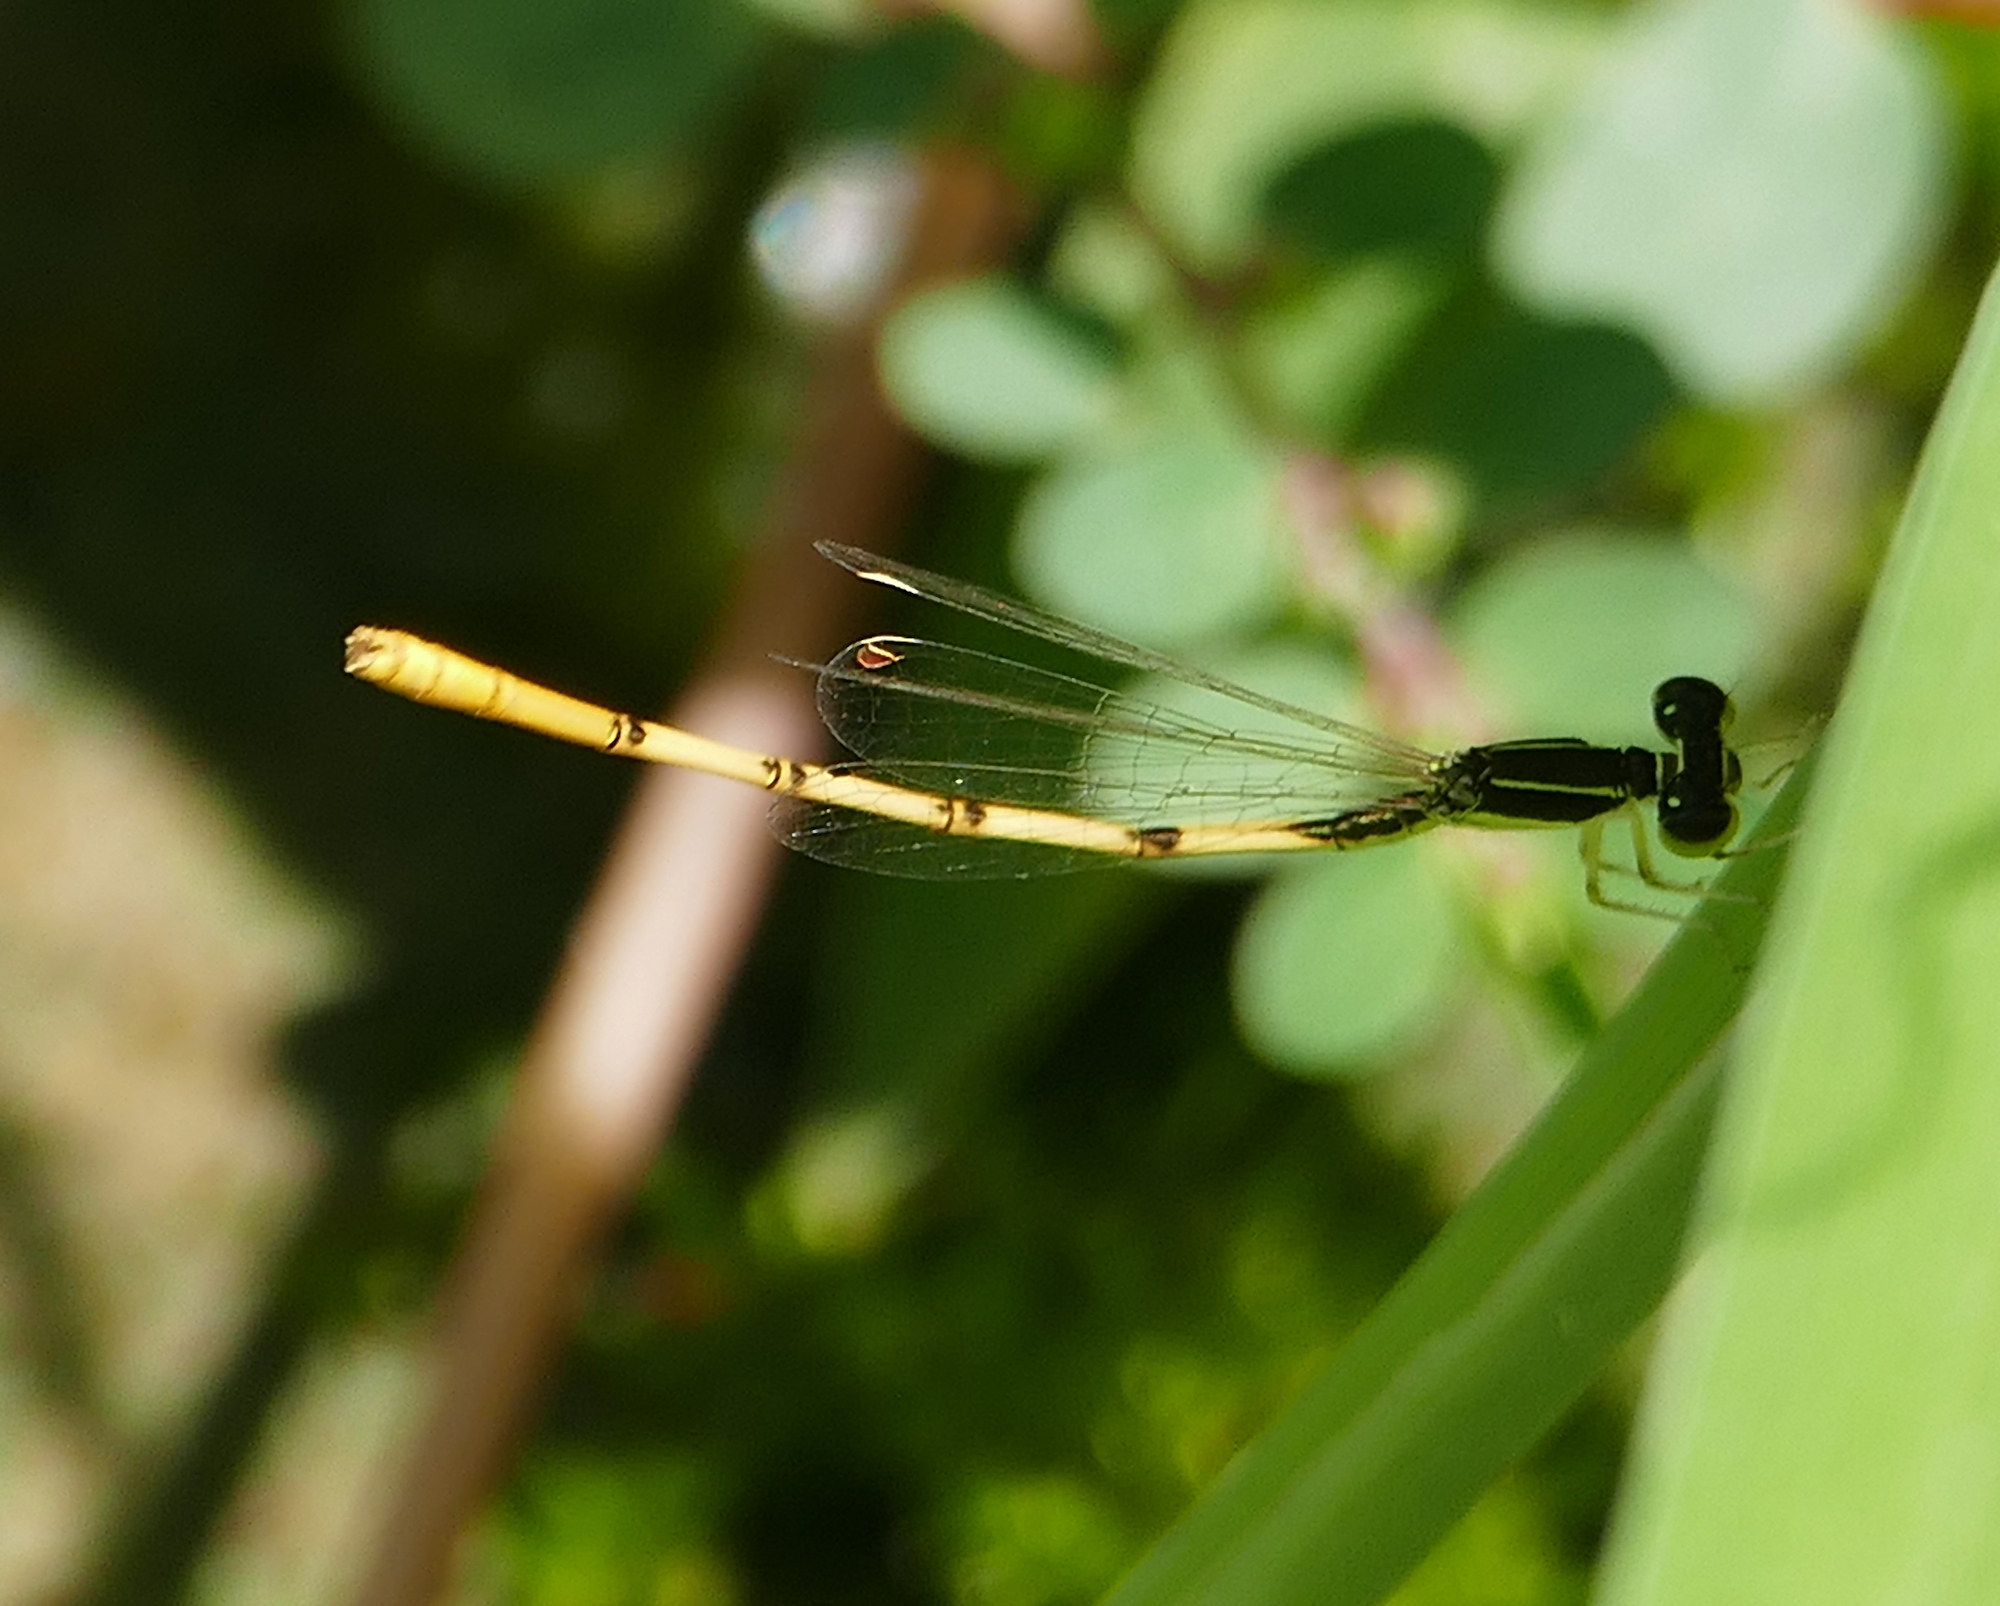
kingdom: Animalia
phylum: Arthropoda
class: Insecta
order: Odonata
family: Coenagrionidae
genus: Ischnura
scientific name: Ischnura hastata
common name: Citrine forktail
